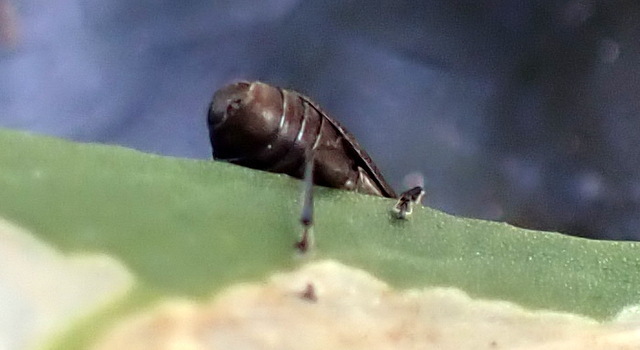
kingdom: Animalia
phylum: Arthropoda
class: Insecta
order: Coleoptera
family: Chrysomelidae
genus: Agasicles
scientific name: Agasicles hygrophila
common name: Alligatorweed flea beetle
